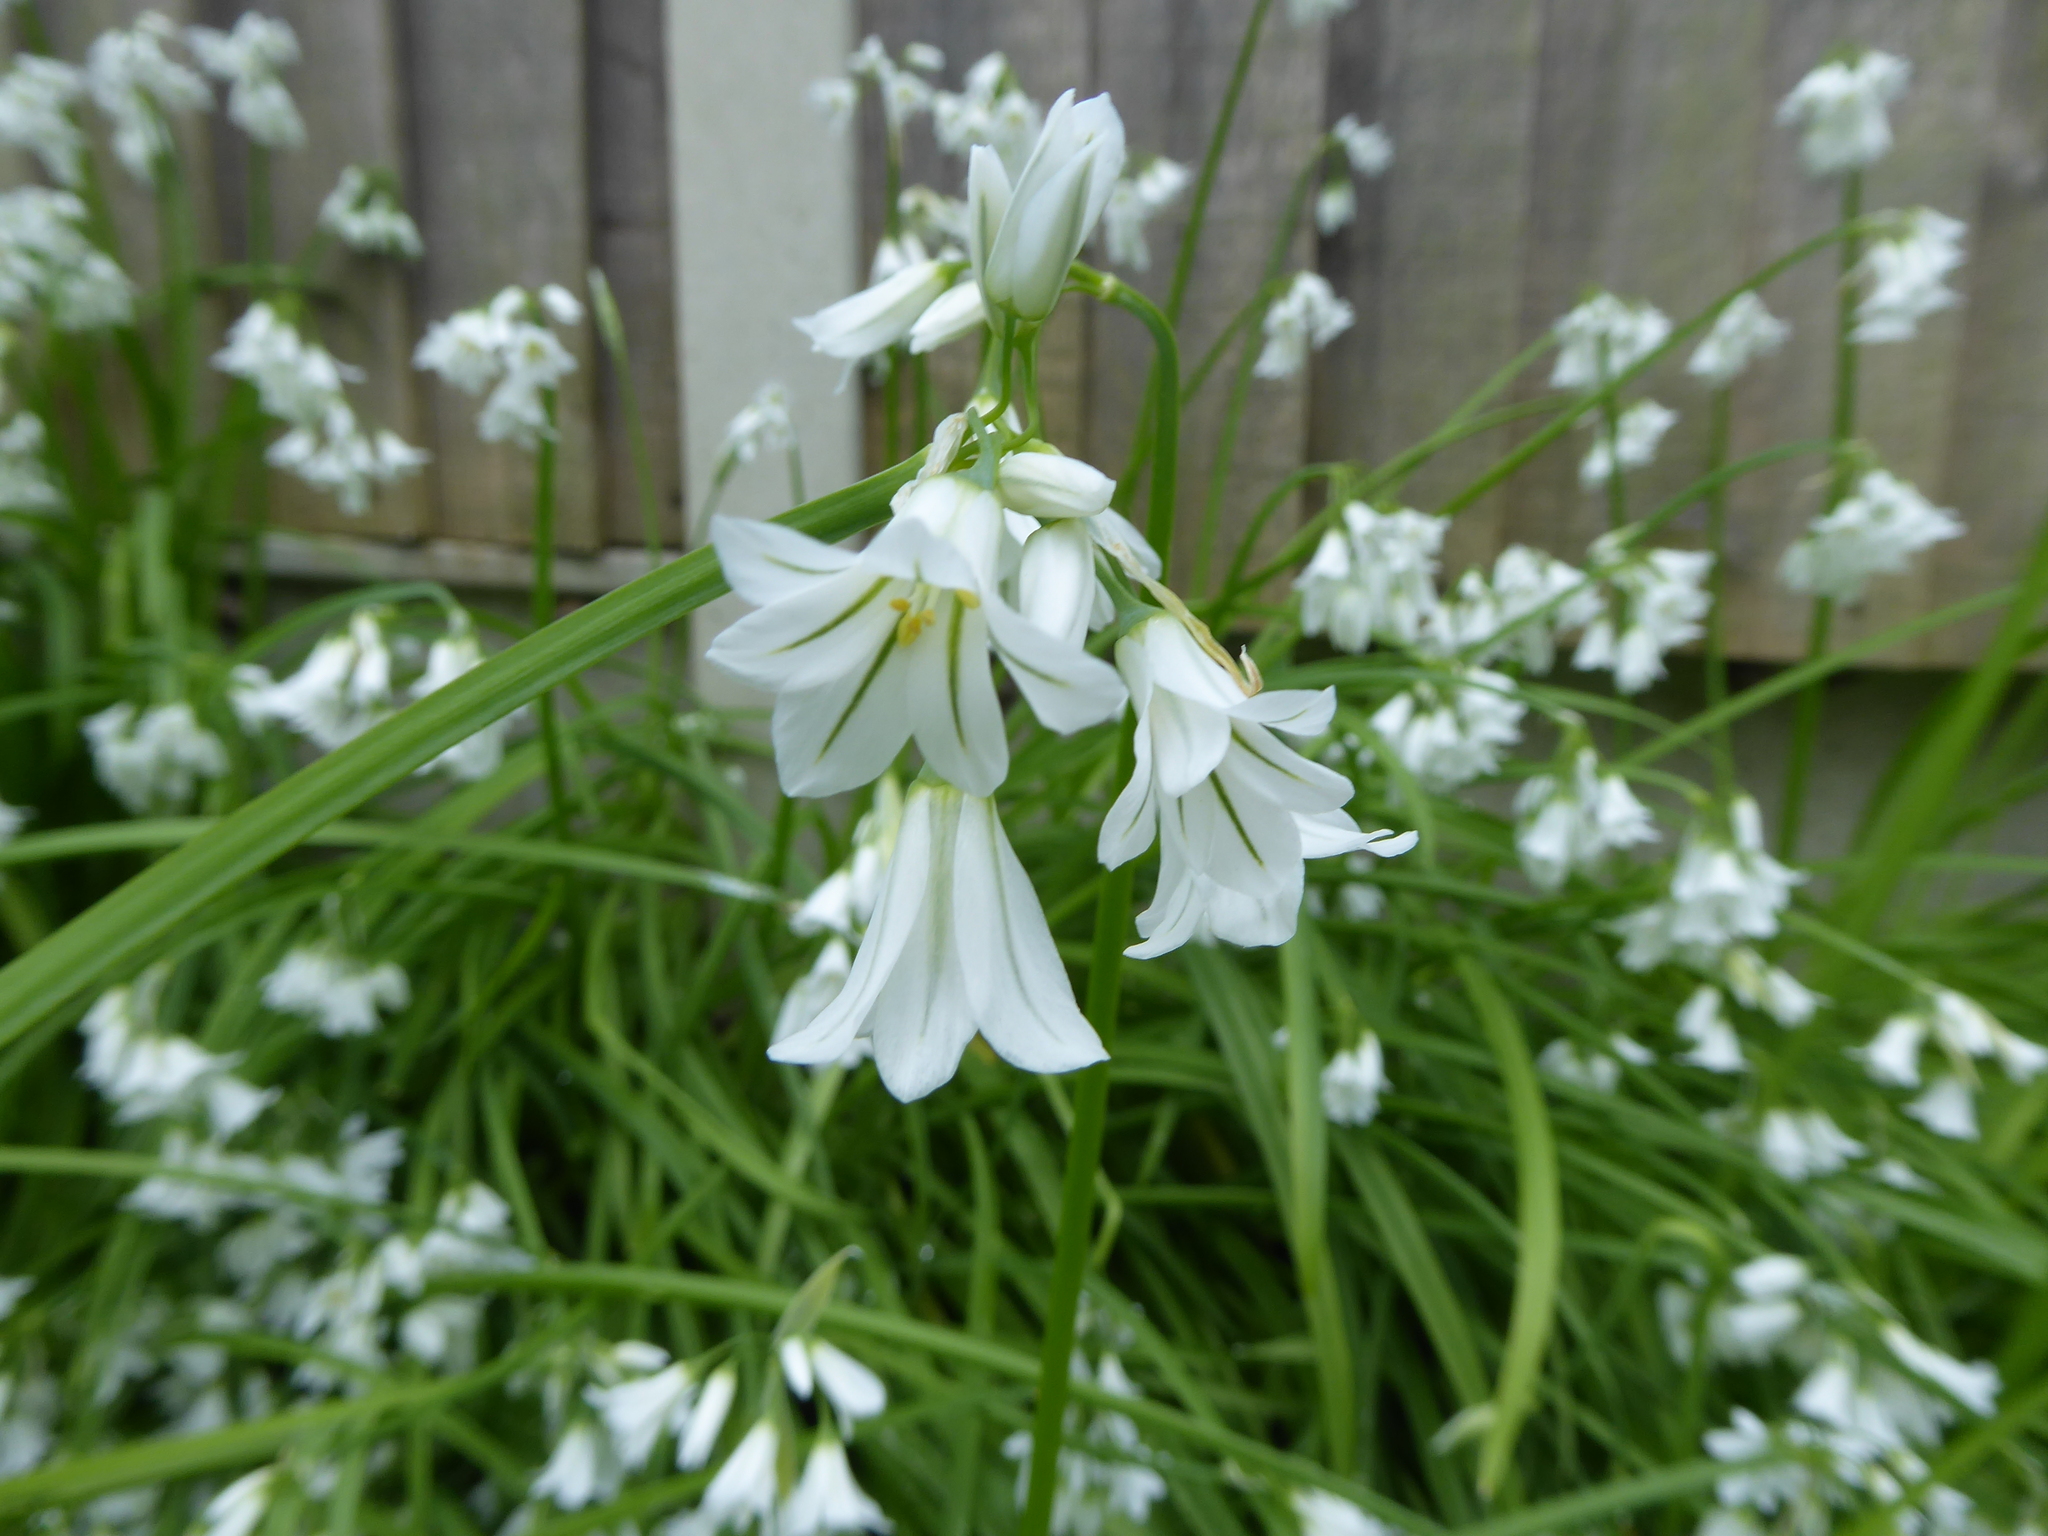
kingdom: Plantae
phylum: Tracheophyta
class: Liliopsida
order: Asparagales
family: Amaryllidaceae
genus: Allium
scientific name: Allium triquetrum
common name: Three-cornered garlic
